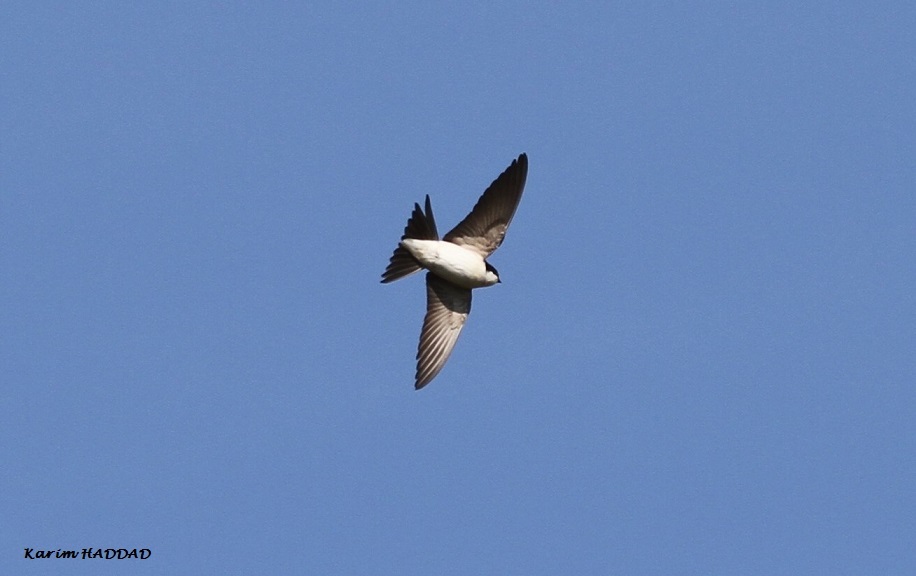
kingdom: Animalia
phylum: Chordata
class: Aves
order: Passeriformes
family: Hirundinidae
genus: Delichon
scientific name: Delichon urbicum
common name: Common house martin
